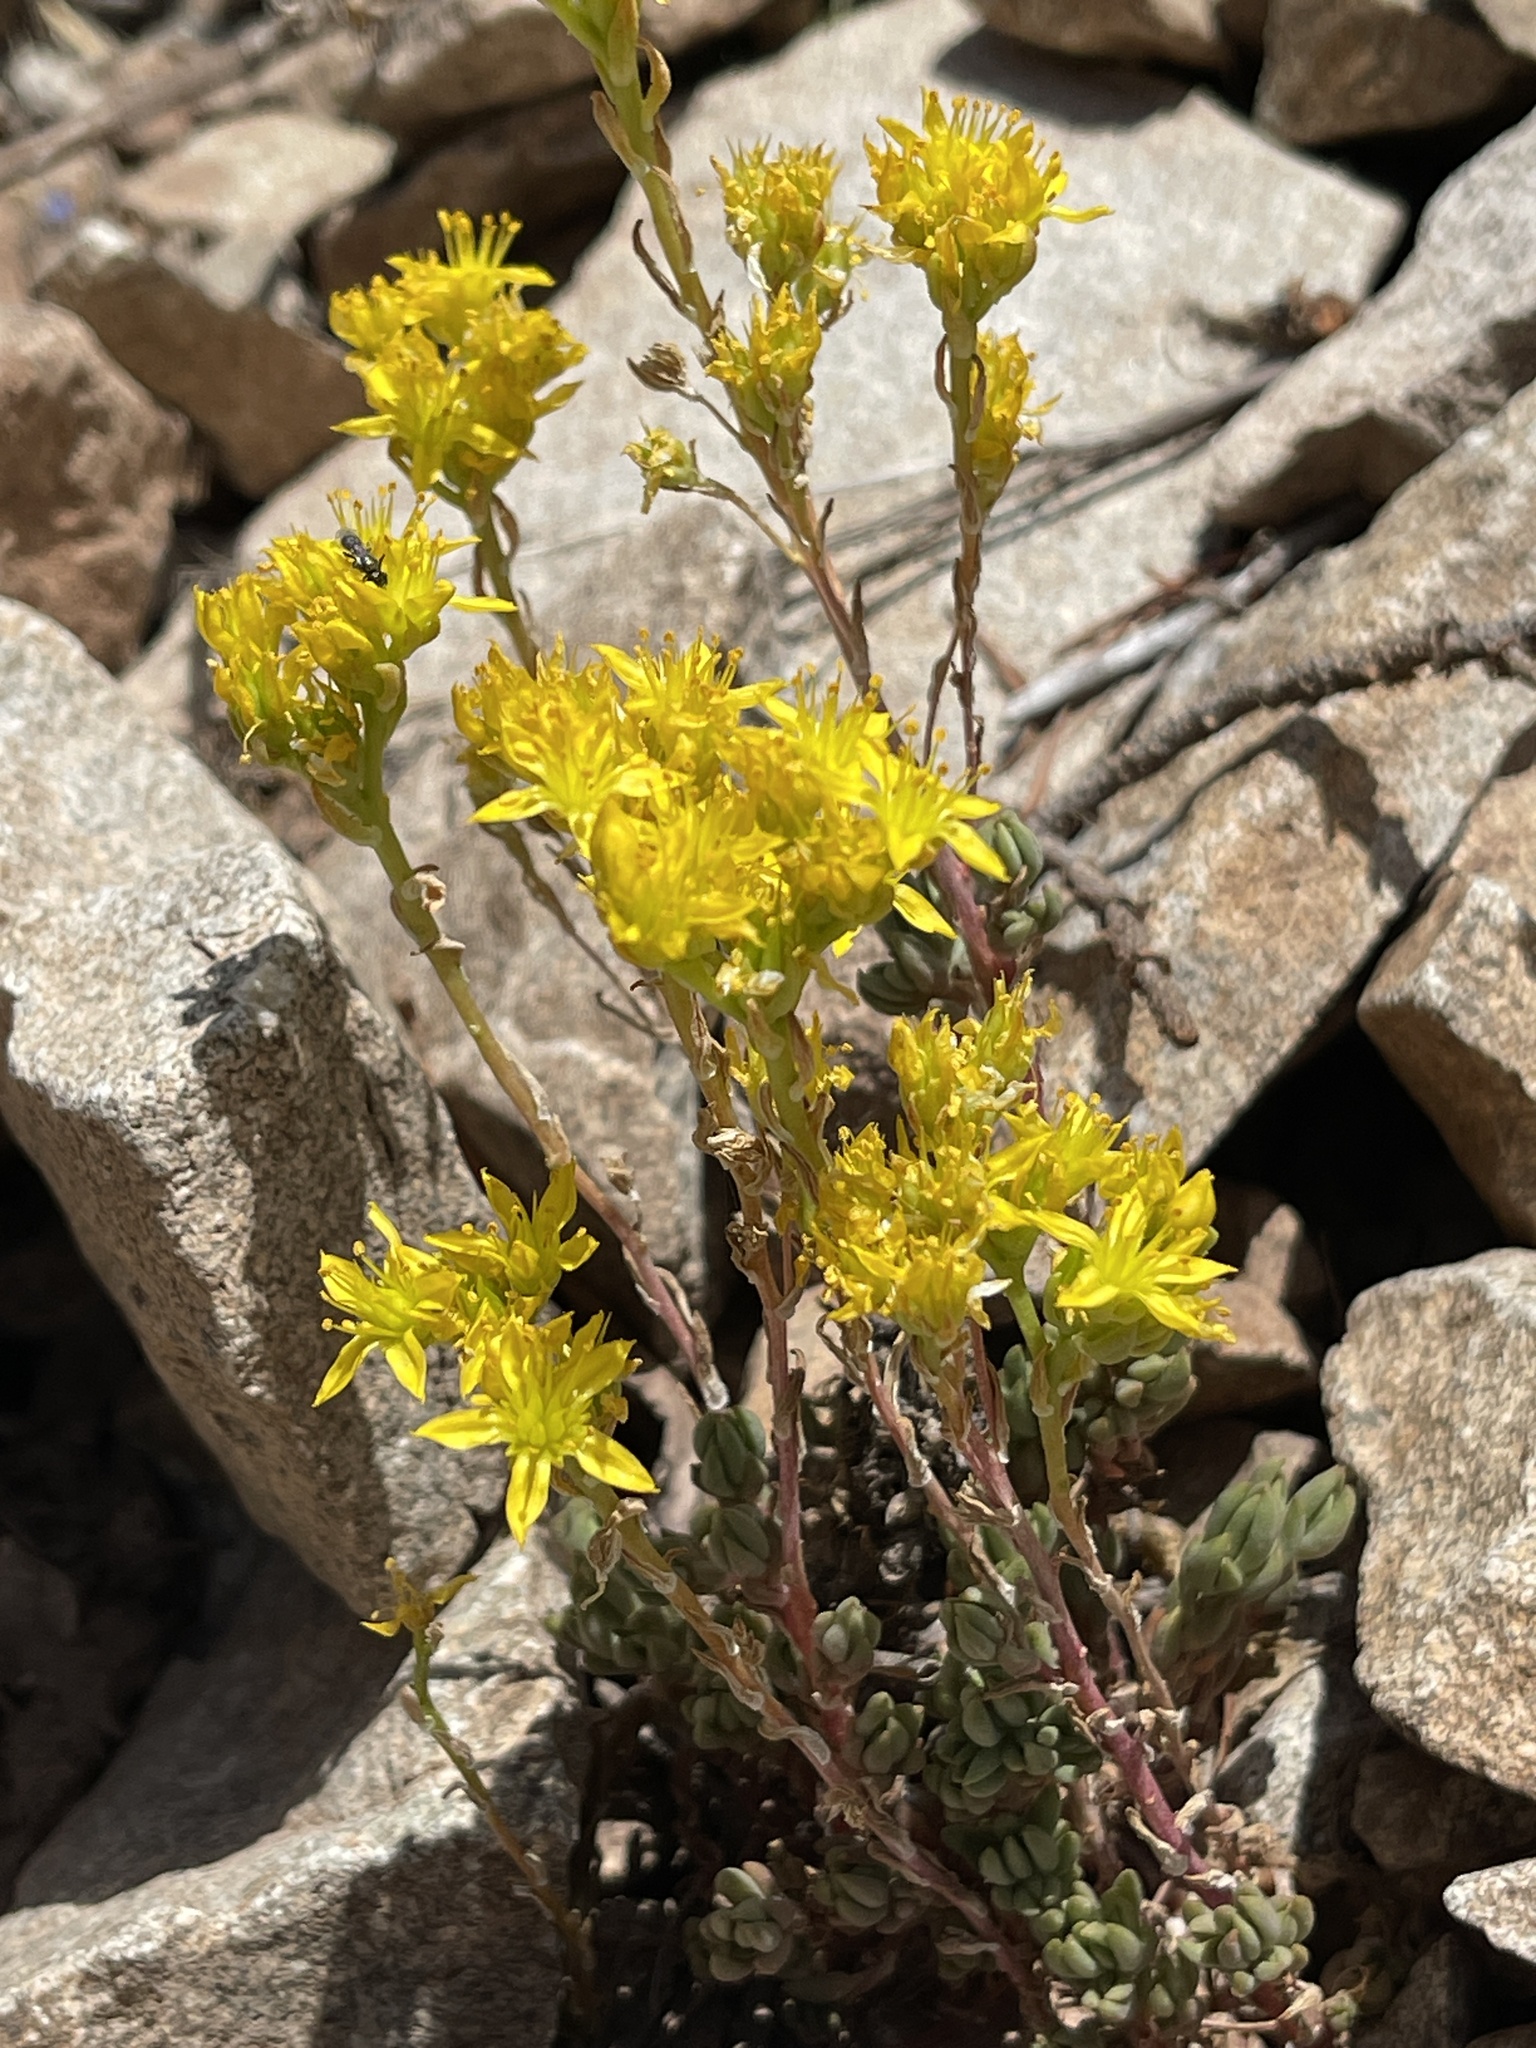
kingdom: Plantae
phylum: Tracheophyta
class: Magnoliopsida
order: Saxifragales
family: Crassulaceae
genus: Sedum
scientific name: Sedum lanceolatum
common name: Common stonecrop
